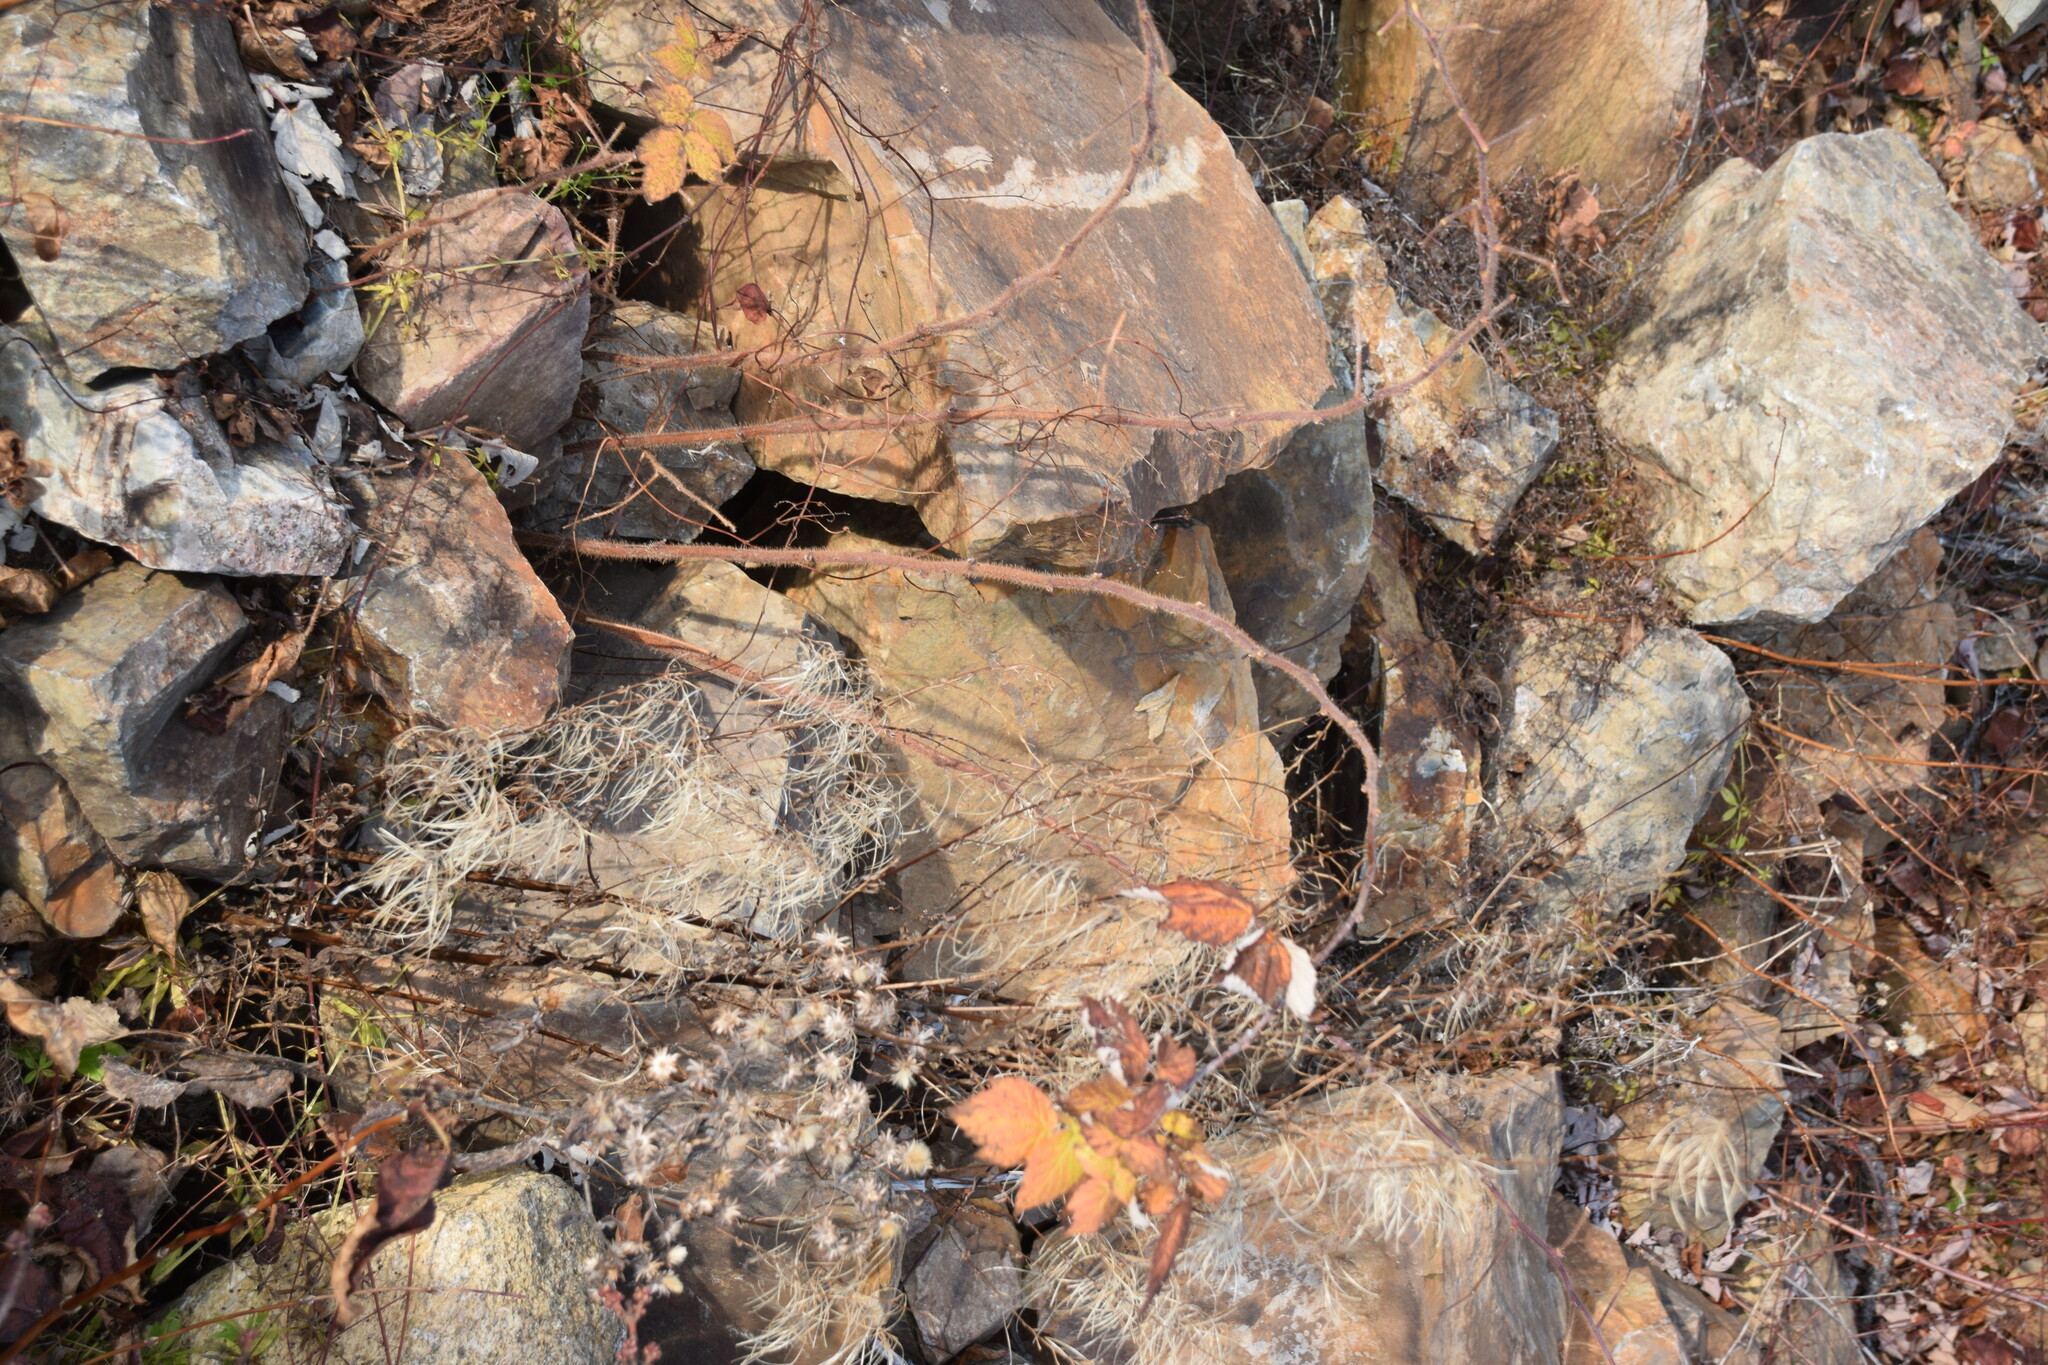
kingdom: Plantae
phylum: Tracheophyta
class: Magnoliopsida
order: Rosales
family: Rosaceae
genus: Rubus
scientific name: Rubus idaeus
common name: Raspberry
